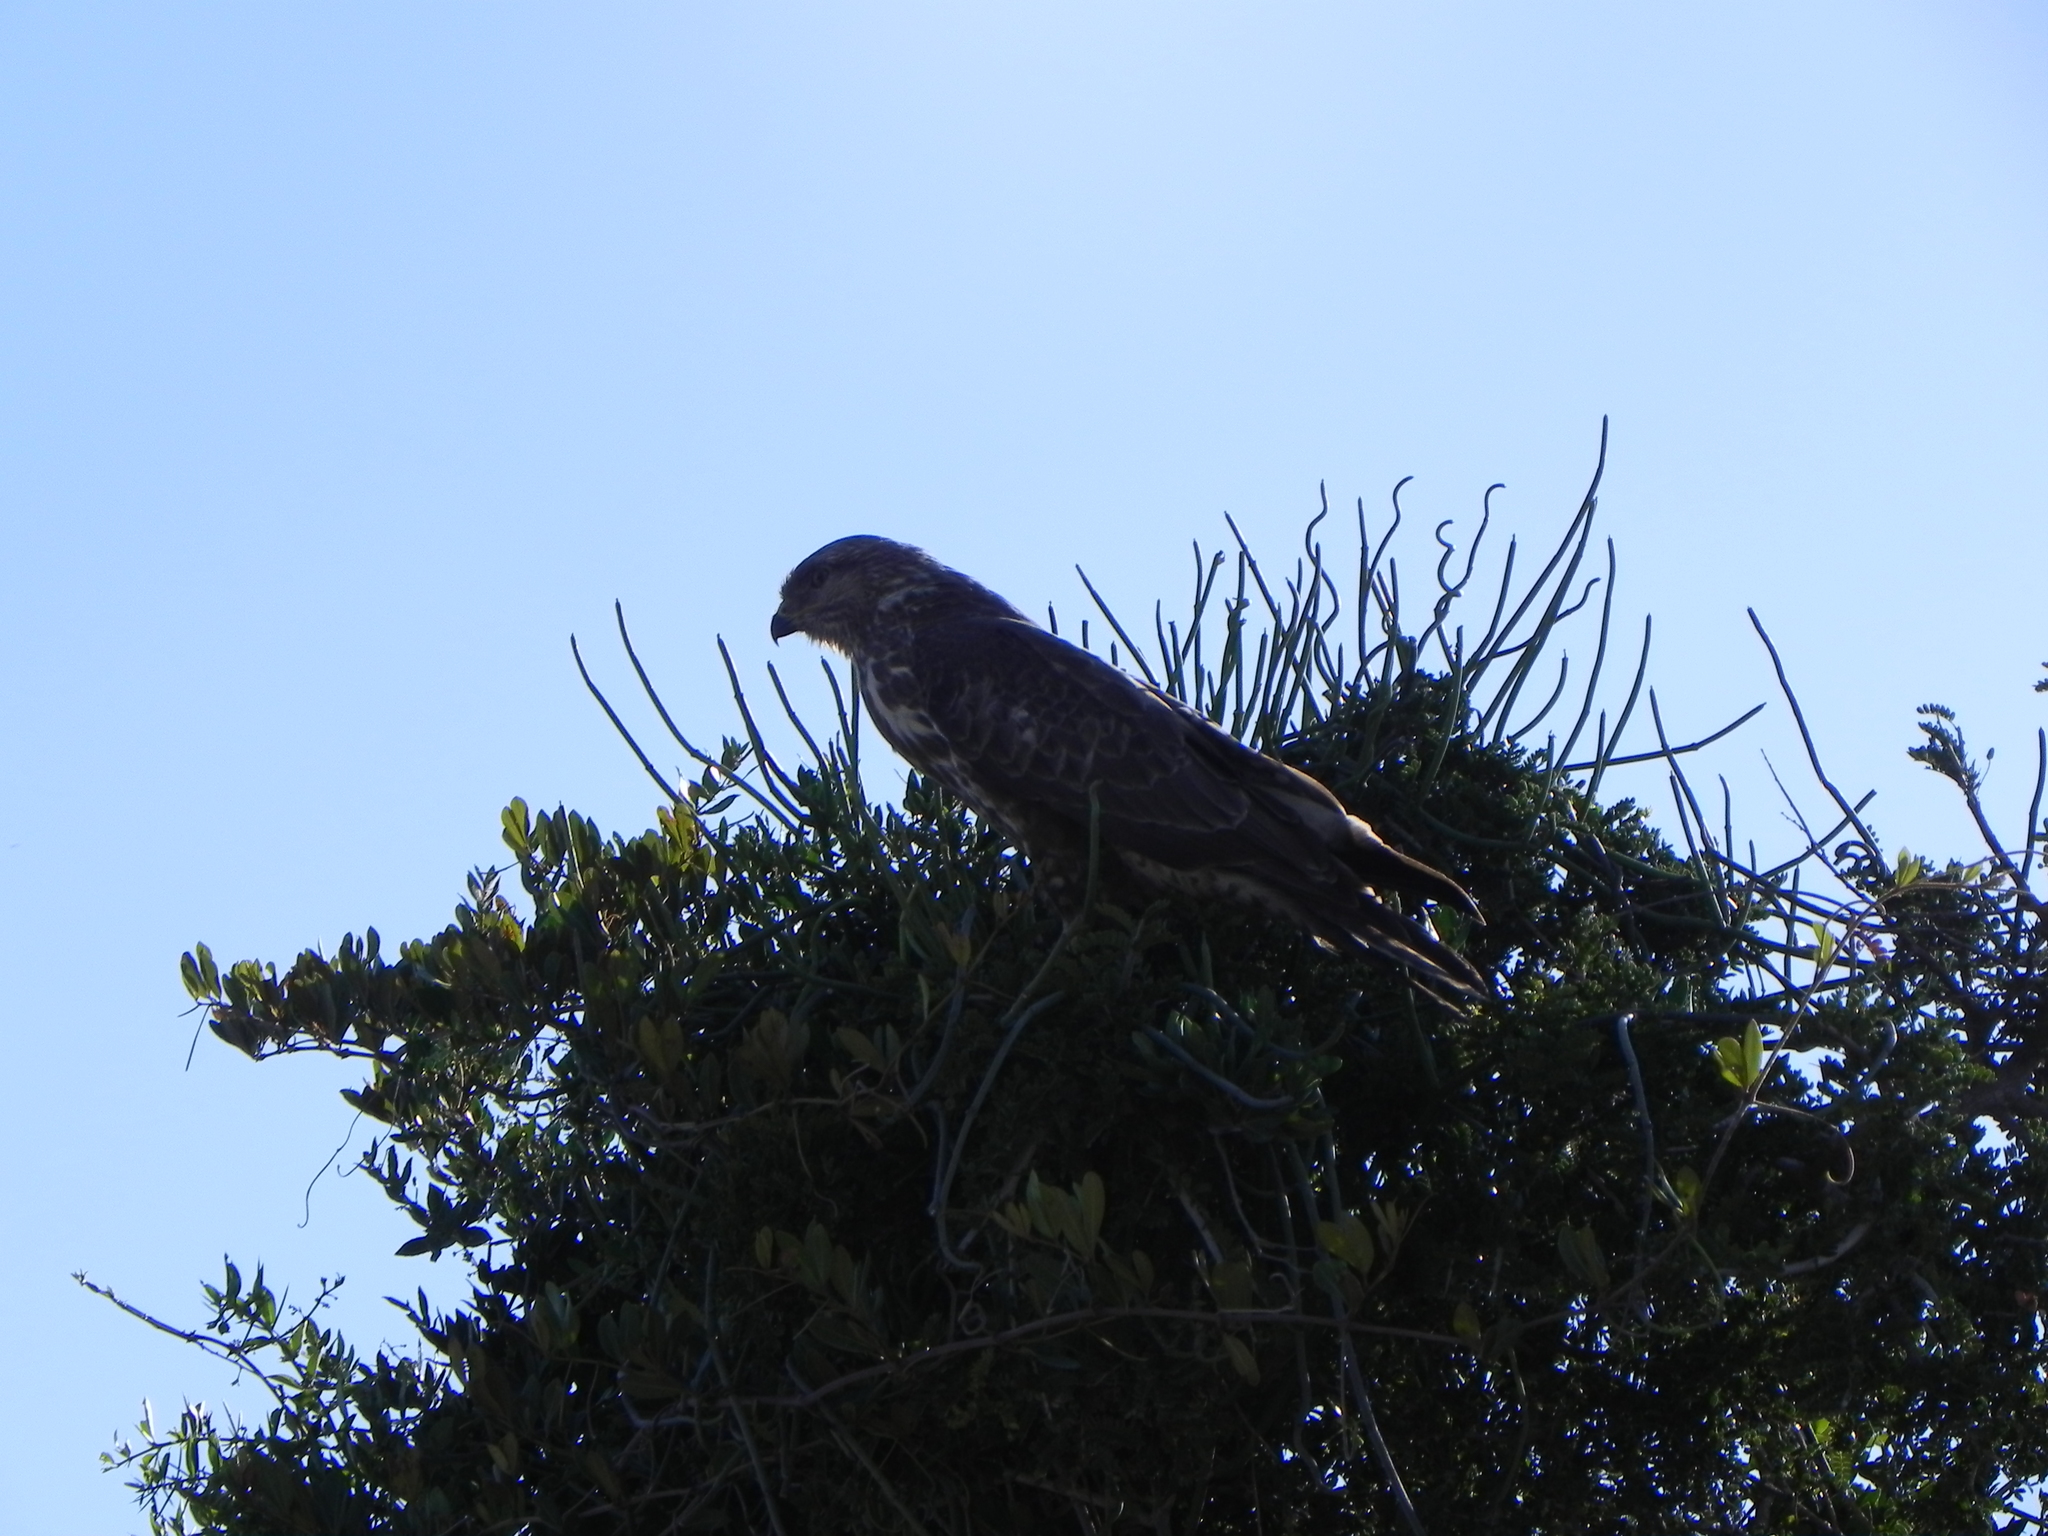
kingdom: Animalia
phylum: Chordata
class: Aves
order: Accipitriformes
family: Accipitridae
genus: Buteo
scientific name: Buteo trizonatus
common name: Forest buzzard
